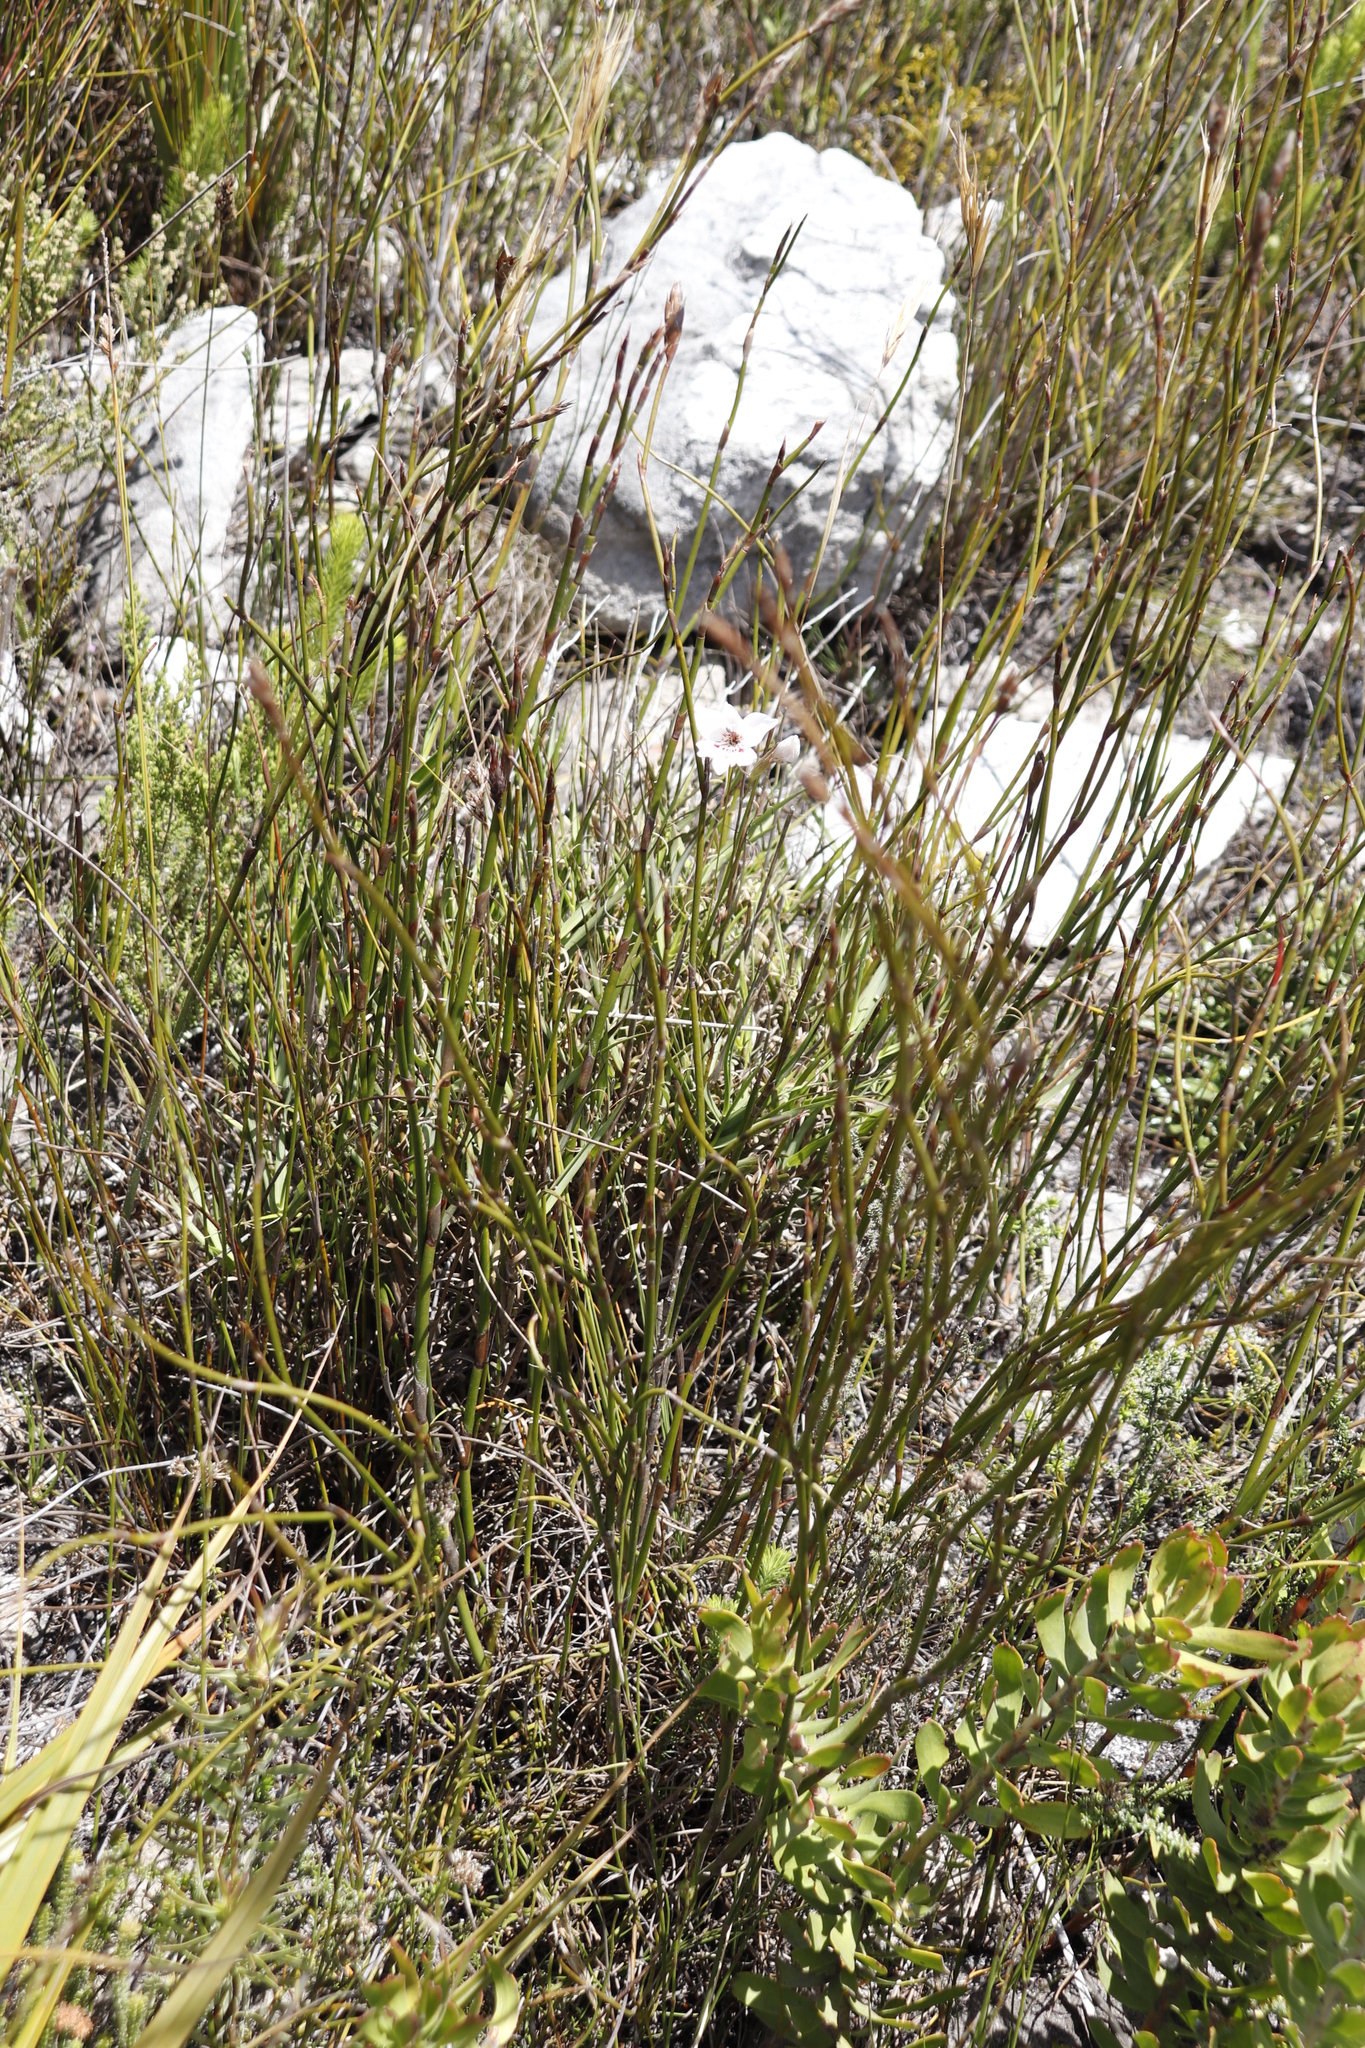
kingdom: Plantae
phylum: Tracheophyta
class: Liliopsida
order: Asparagales
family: Iridaceae
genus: Gladiolus
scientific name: Gladiolus debilis
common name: Painted-lady
